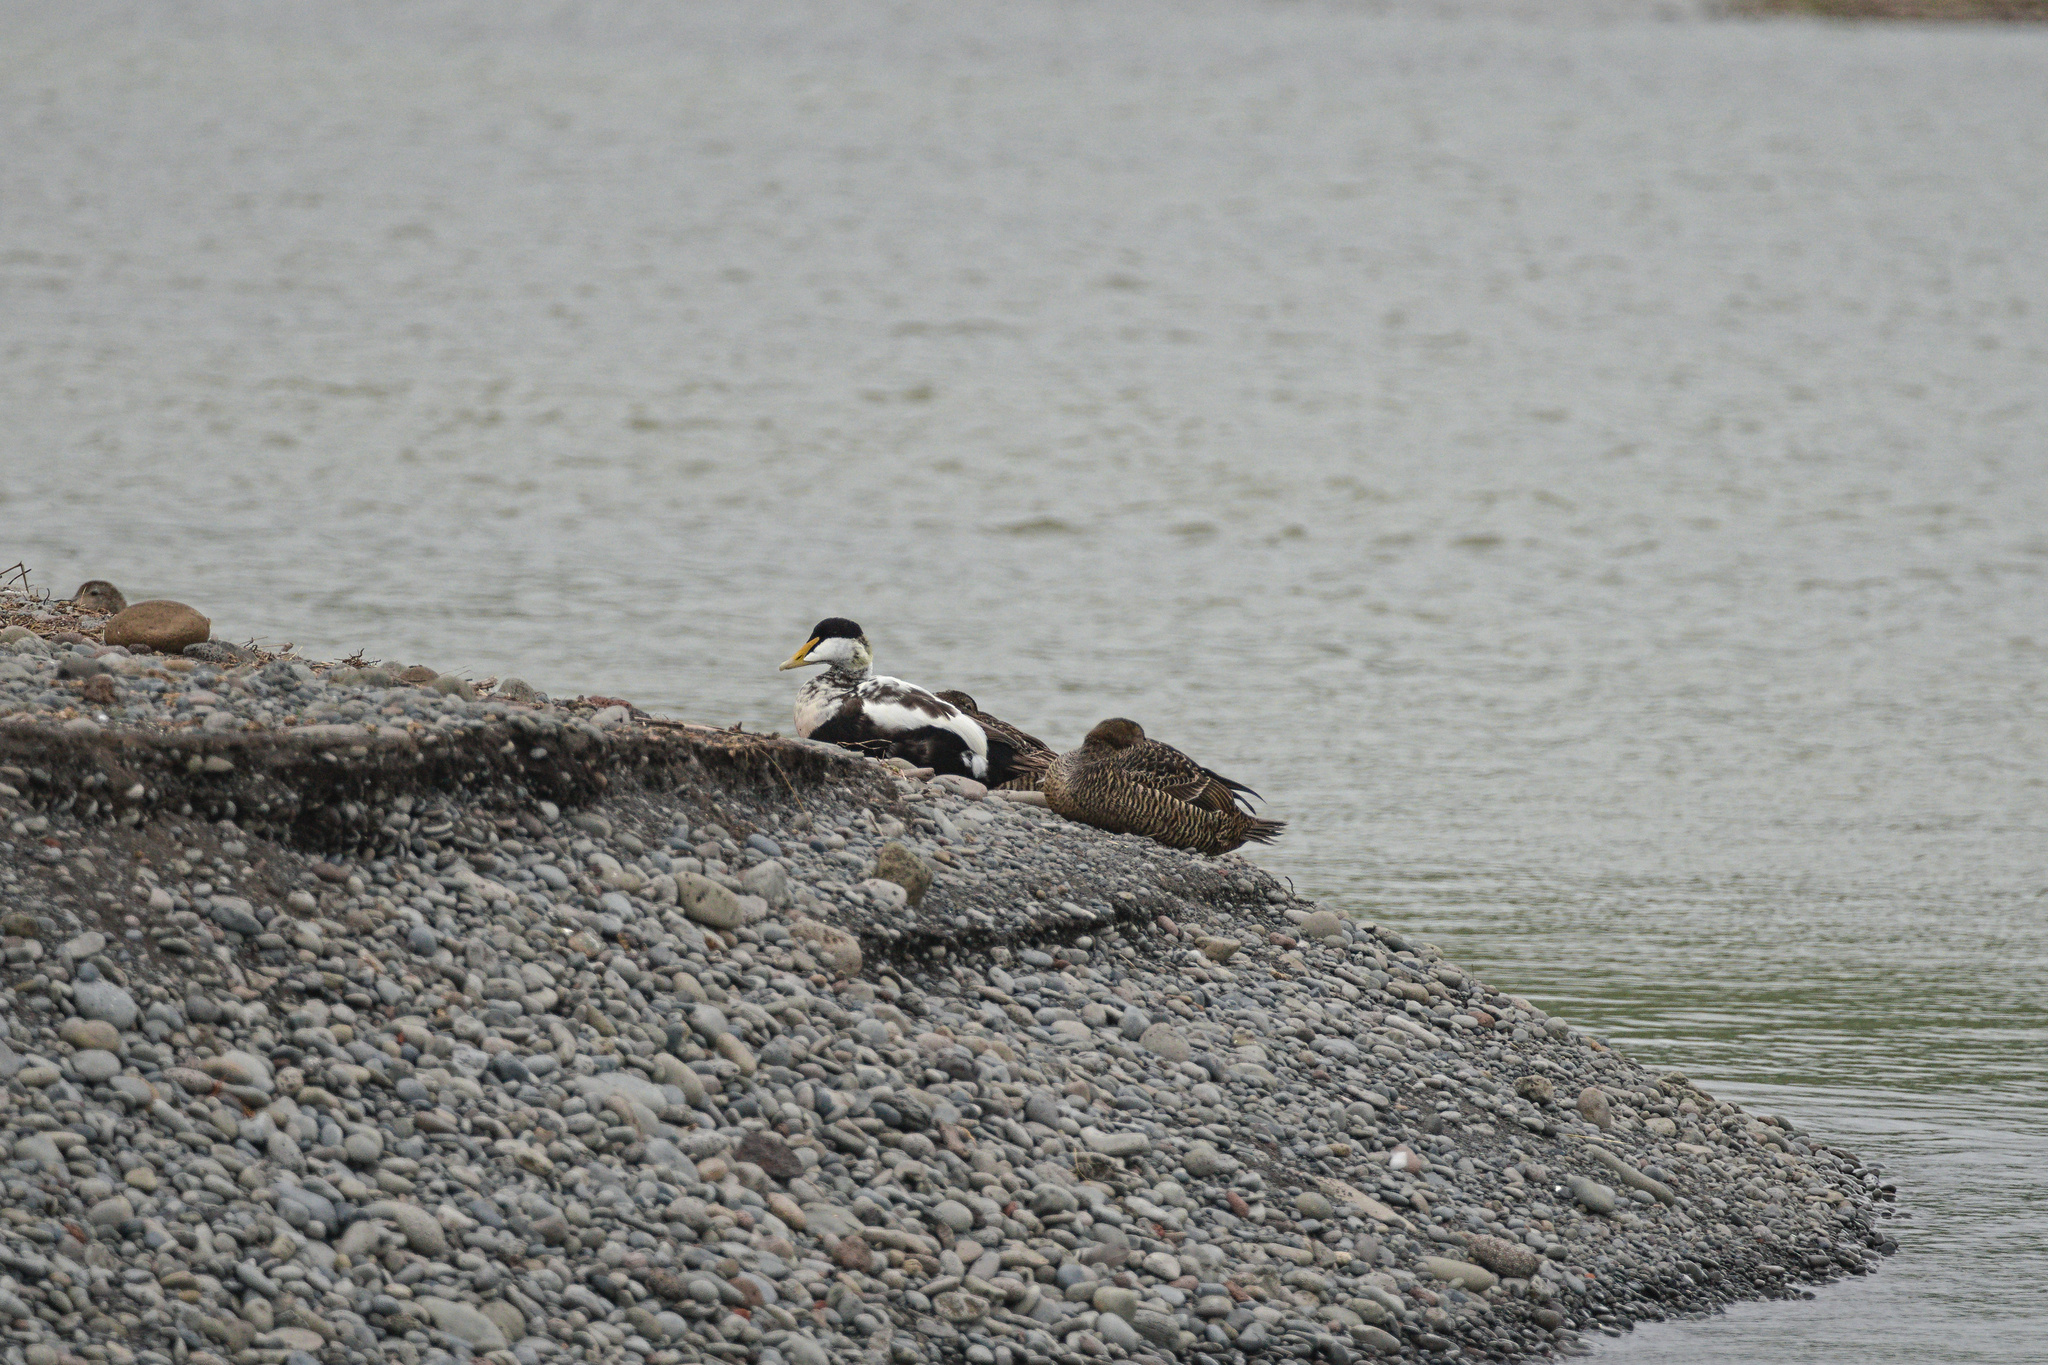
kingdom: Animalia
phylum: Chordata
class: Aves
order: Anseriformes
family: Anatidae
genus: Somateria
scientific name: Somateria mollissima
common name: Common eider
